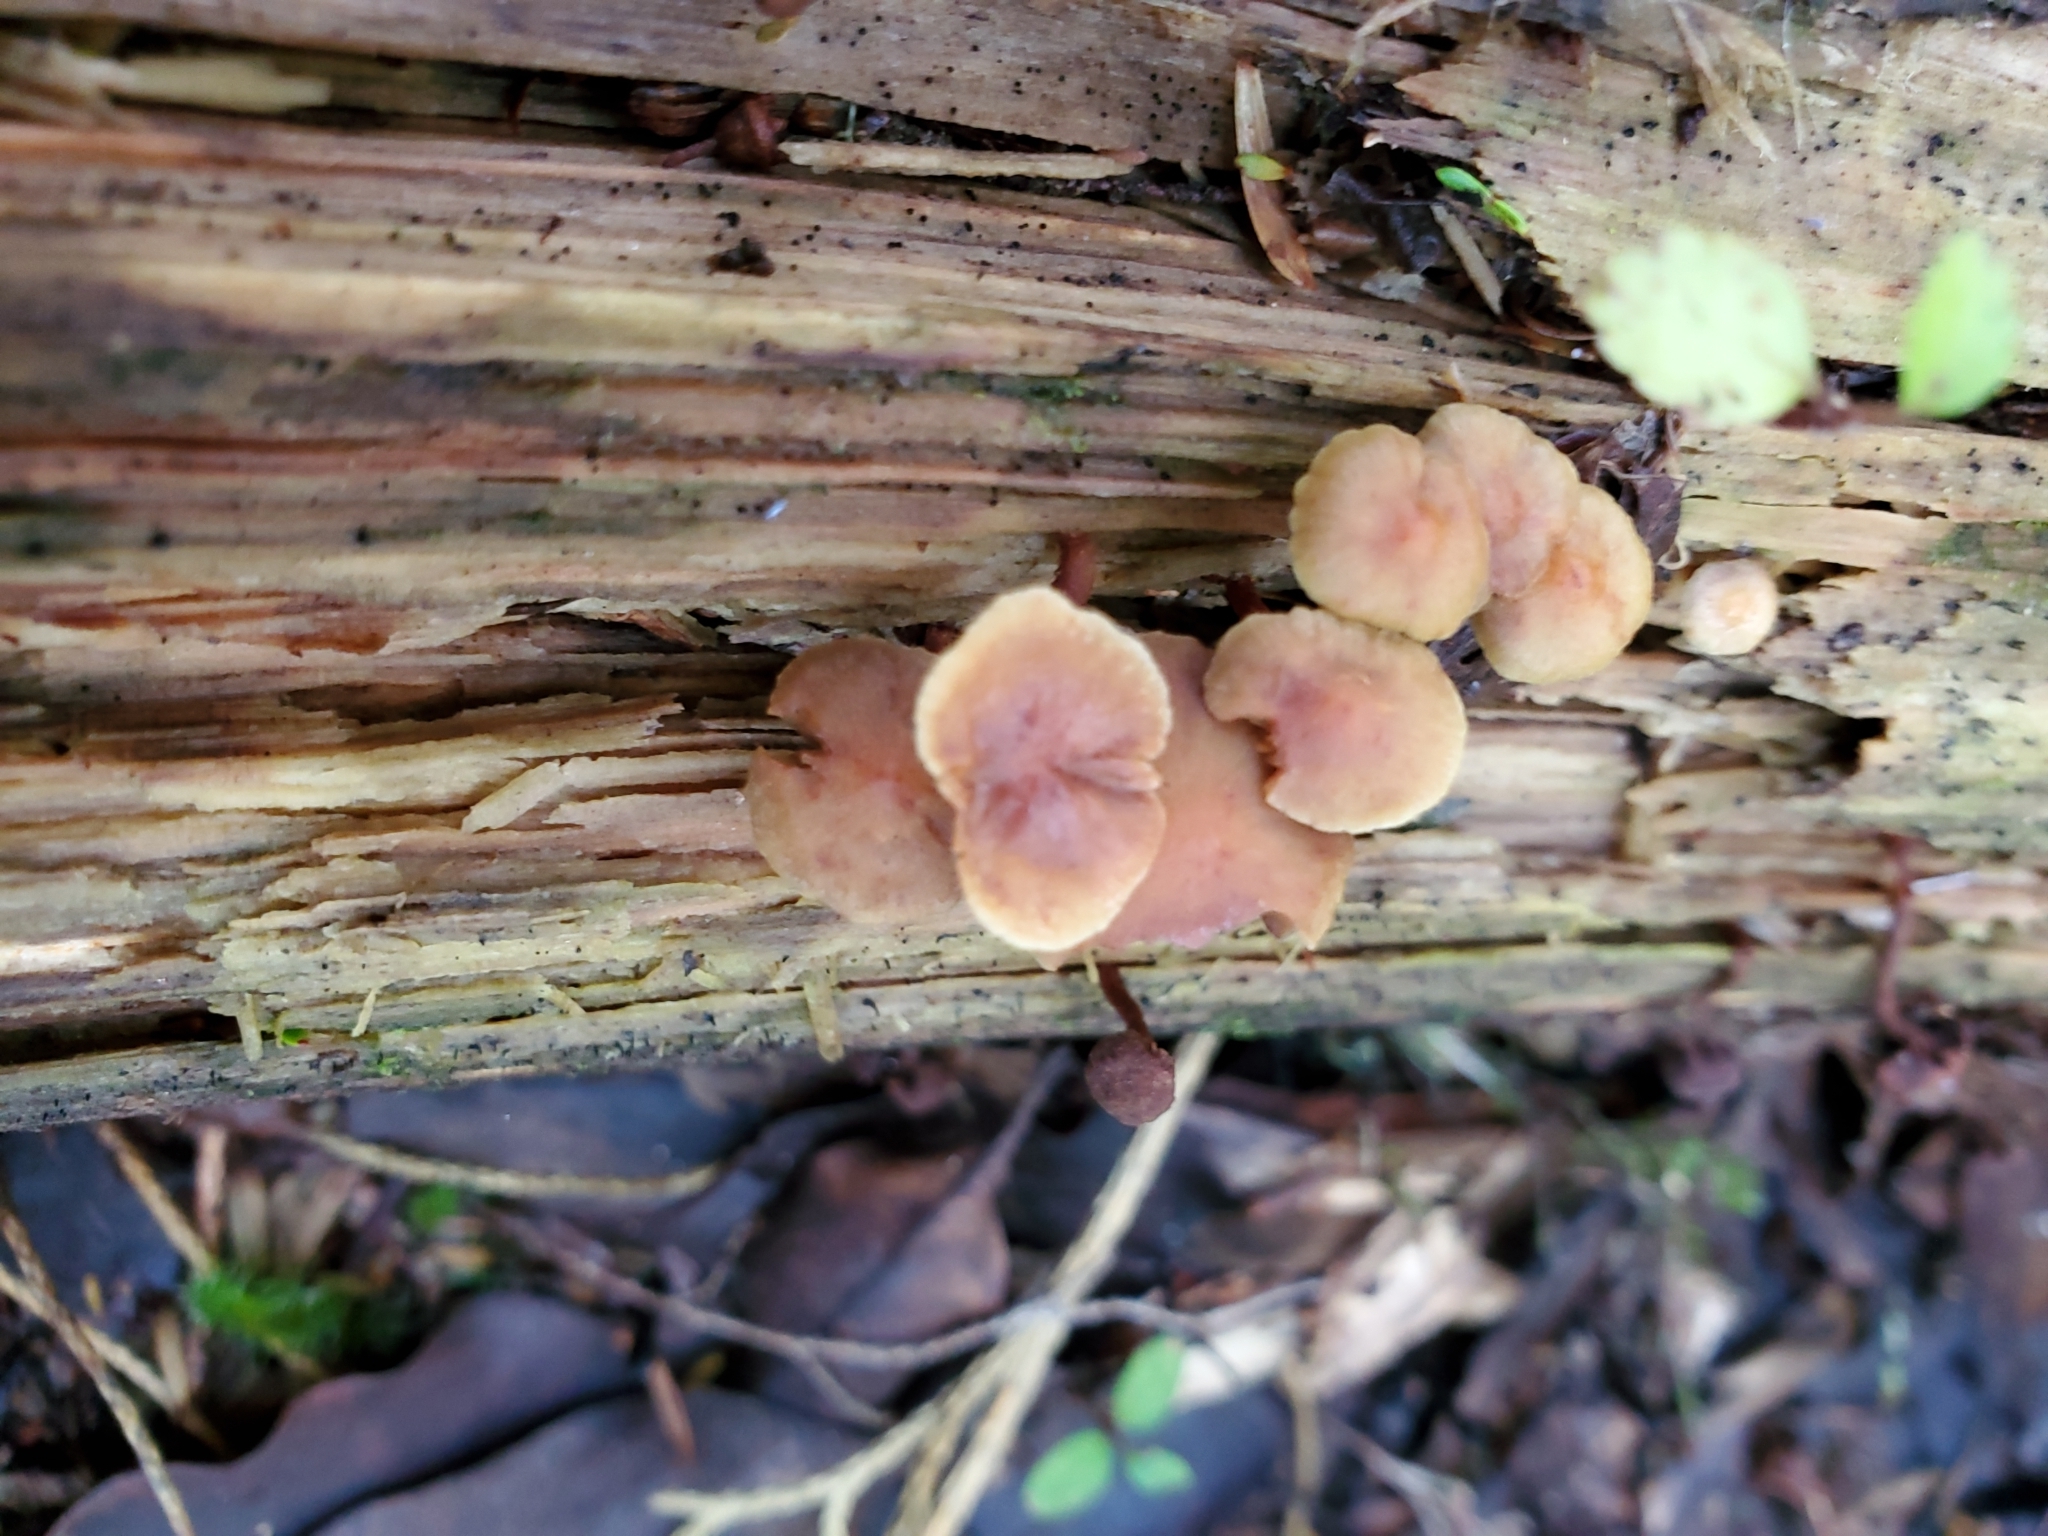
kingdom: Fungi
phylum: Basidiomycota
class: Agaricomycetes
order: Agaricales
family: Strophariaceae
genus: Hypholoma
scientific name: Hypholoma acutum
